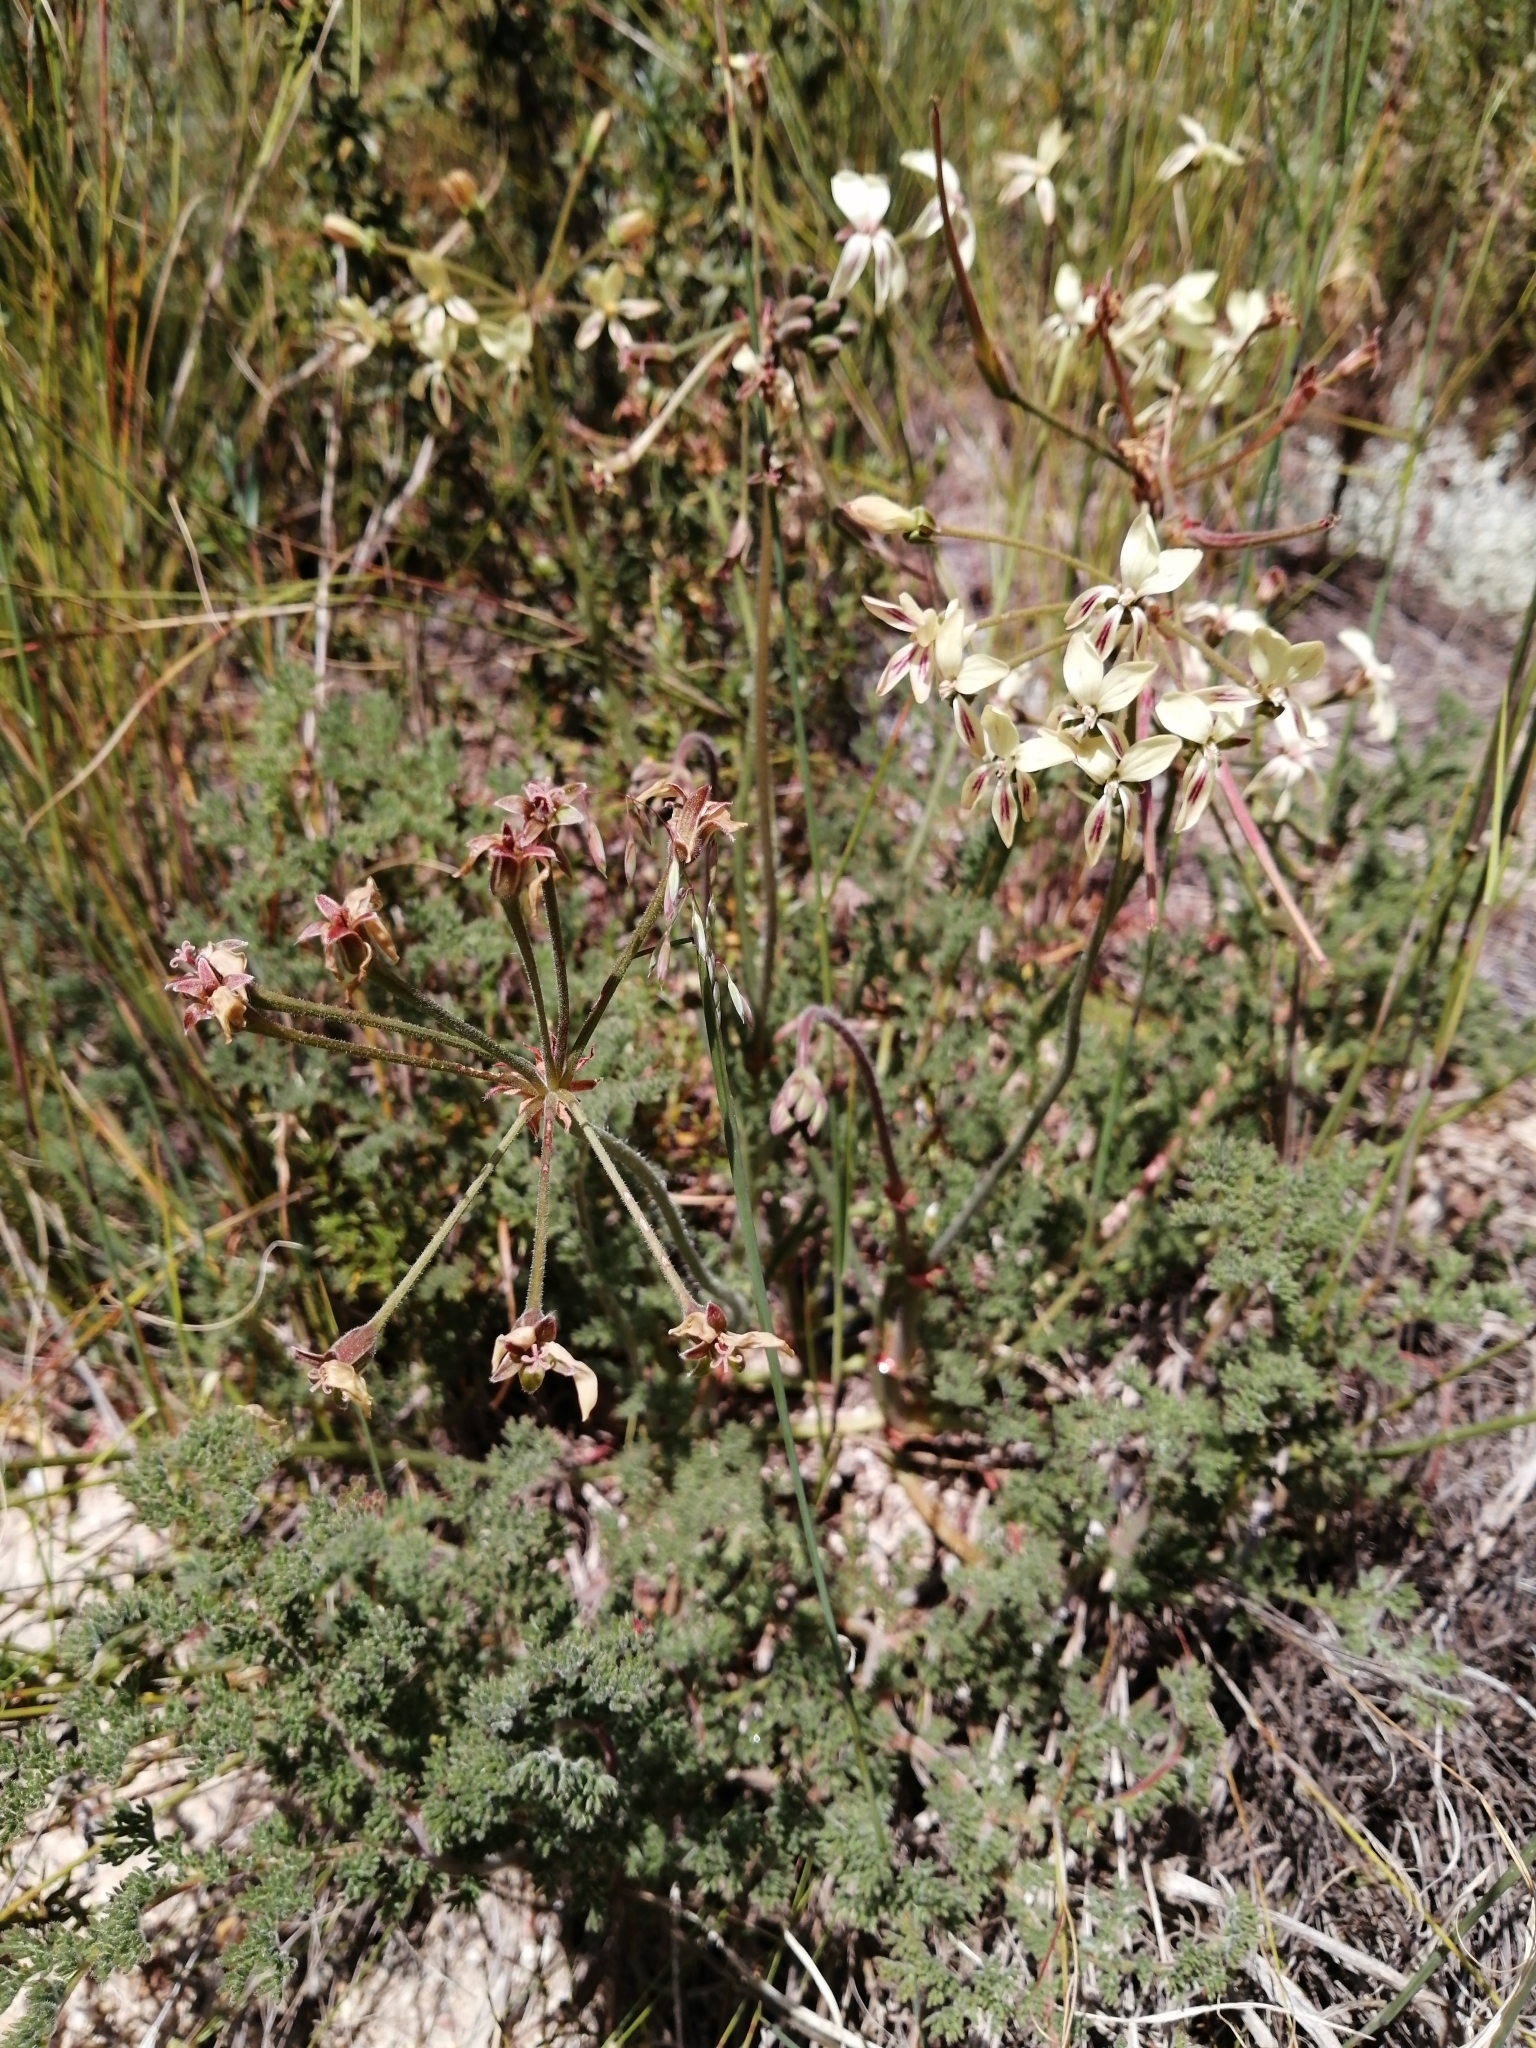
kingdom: Plantae
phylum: Tracheophyta
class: Magnoliopsida
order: Geraniales
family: Geraniaceae
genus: Pelargonium
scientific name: Pelargonium triste
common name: Night-scent pelargonium
